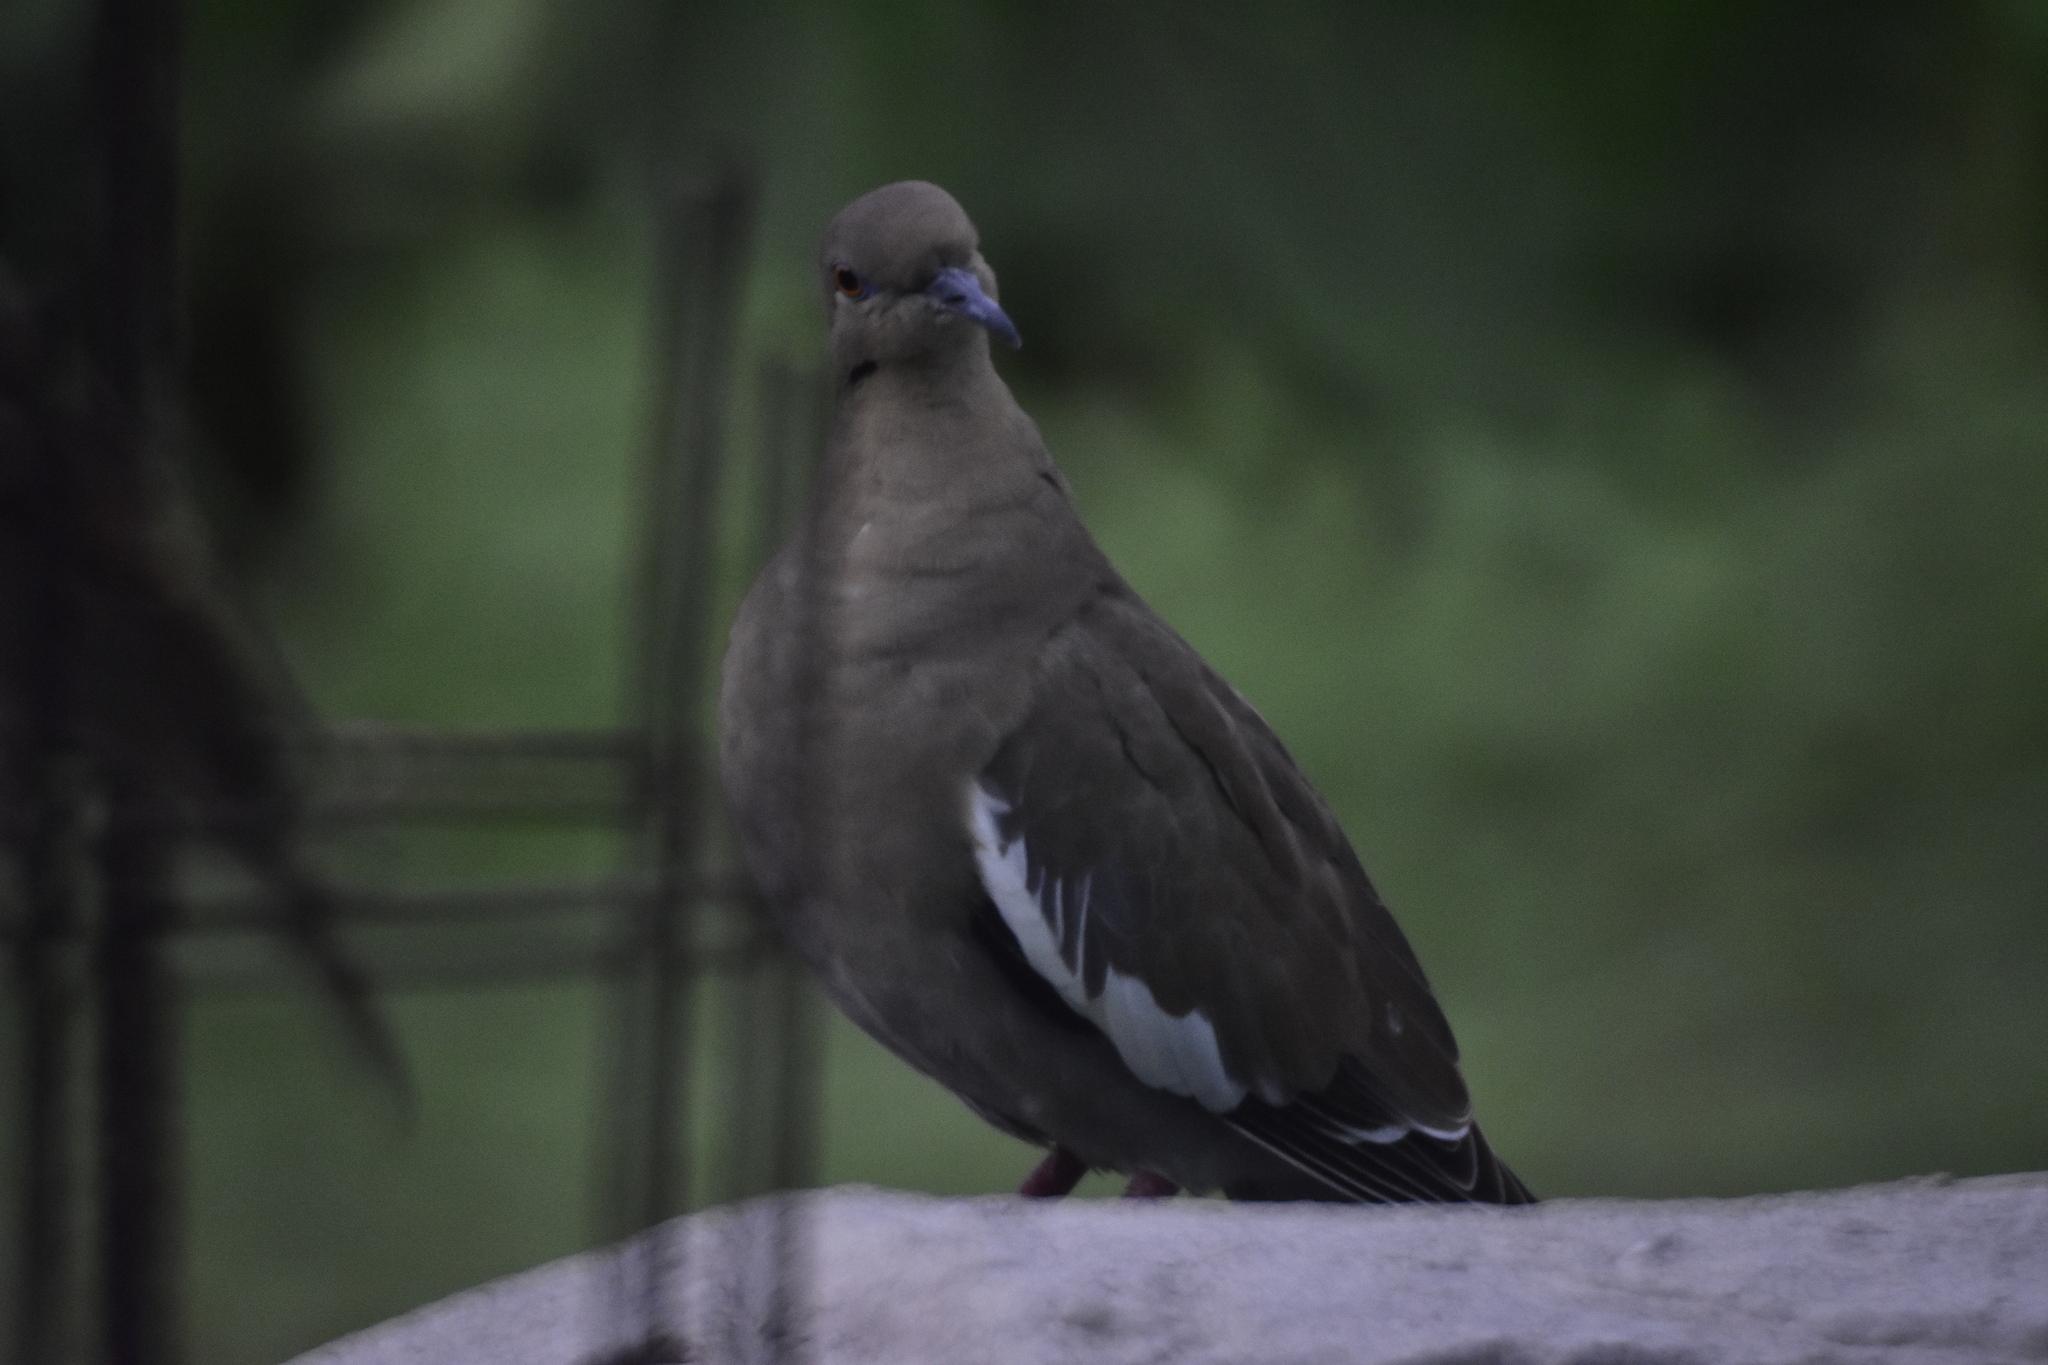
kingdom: Animalia
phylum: Chordata
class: Aves
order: Columbiformes
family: Columbidae
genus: Zenaida
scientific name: Zenaida asiatica
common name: White-winged dove
